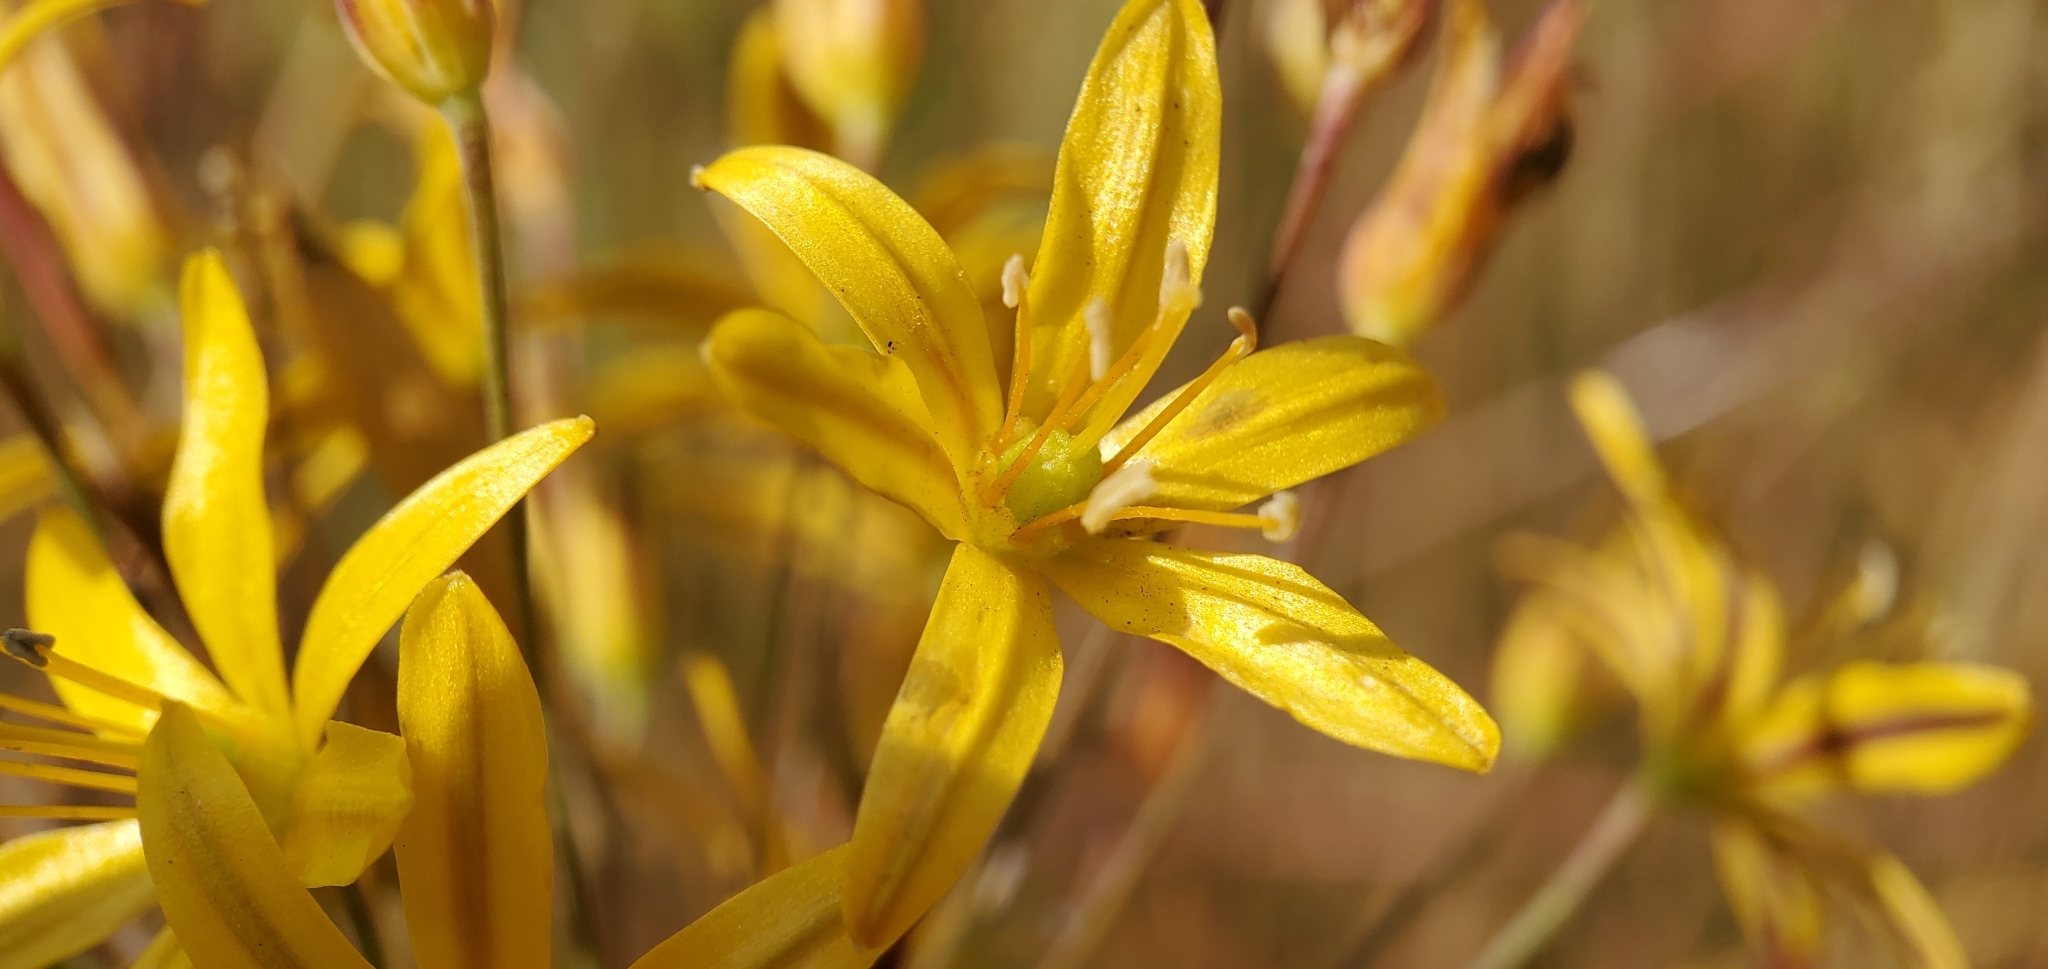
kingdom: Plantae
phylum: Tracheophyta
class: Liliopsida
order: Asparagales
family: Asparagaceae
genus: Bloomeria
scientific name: Bloomeria crocea
